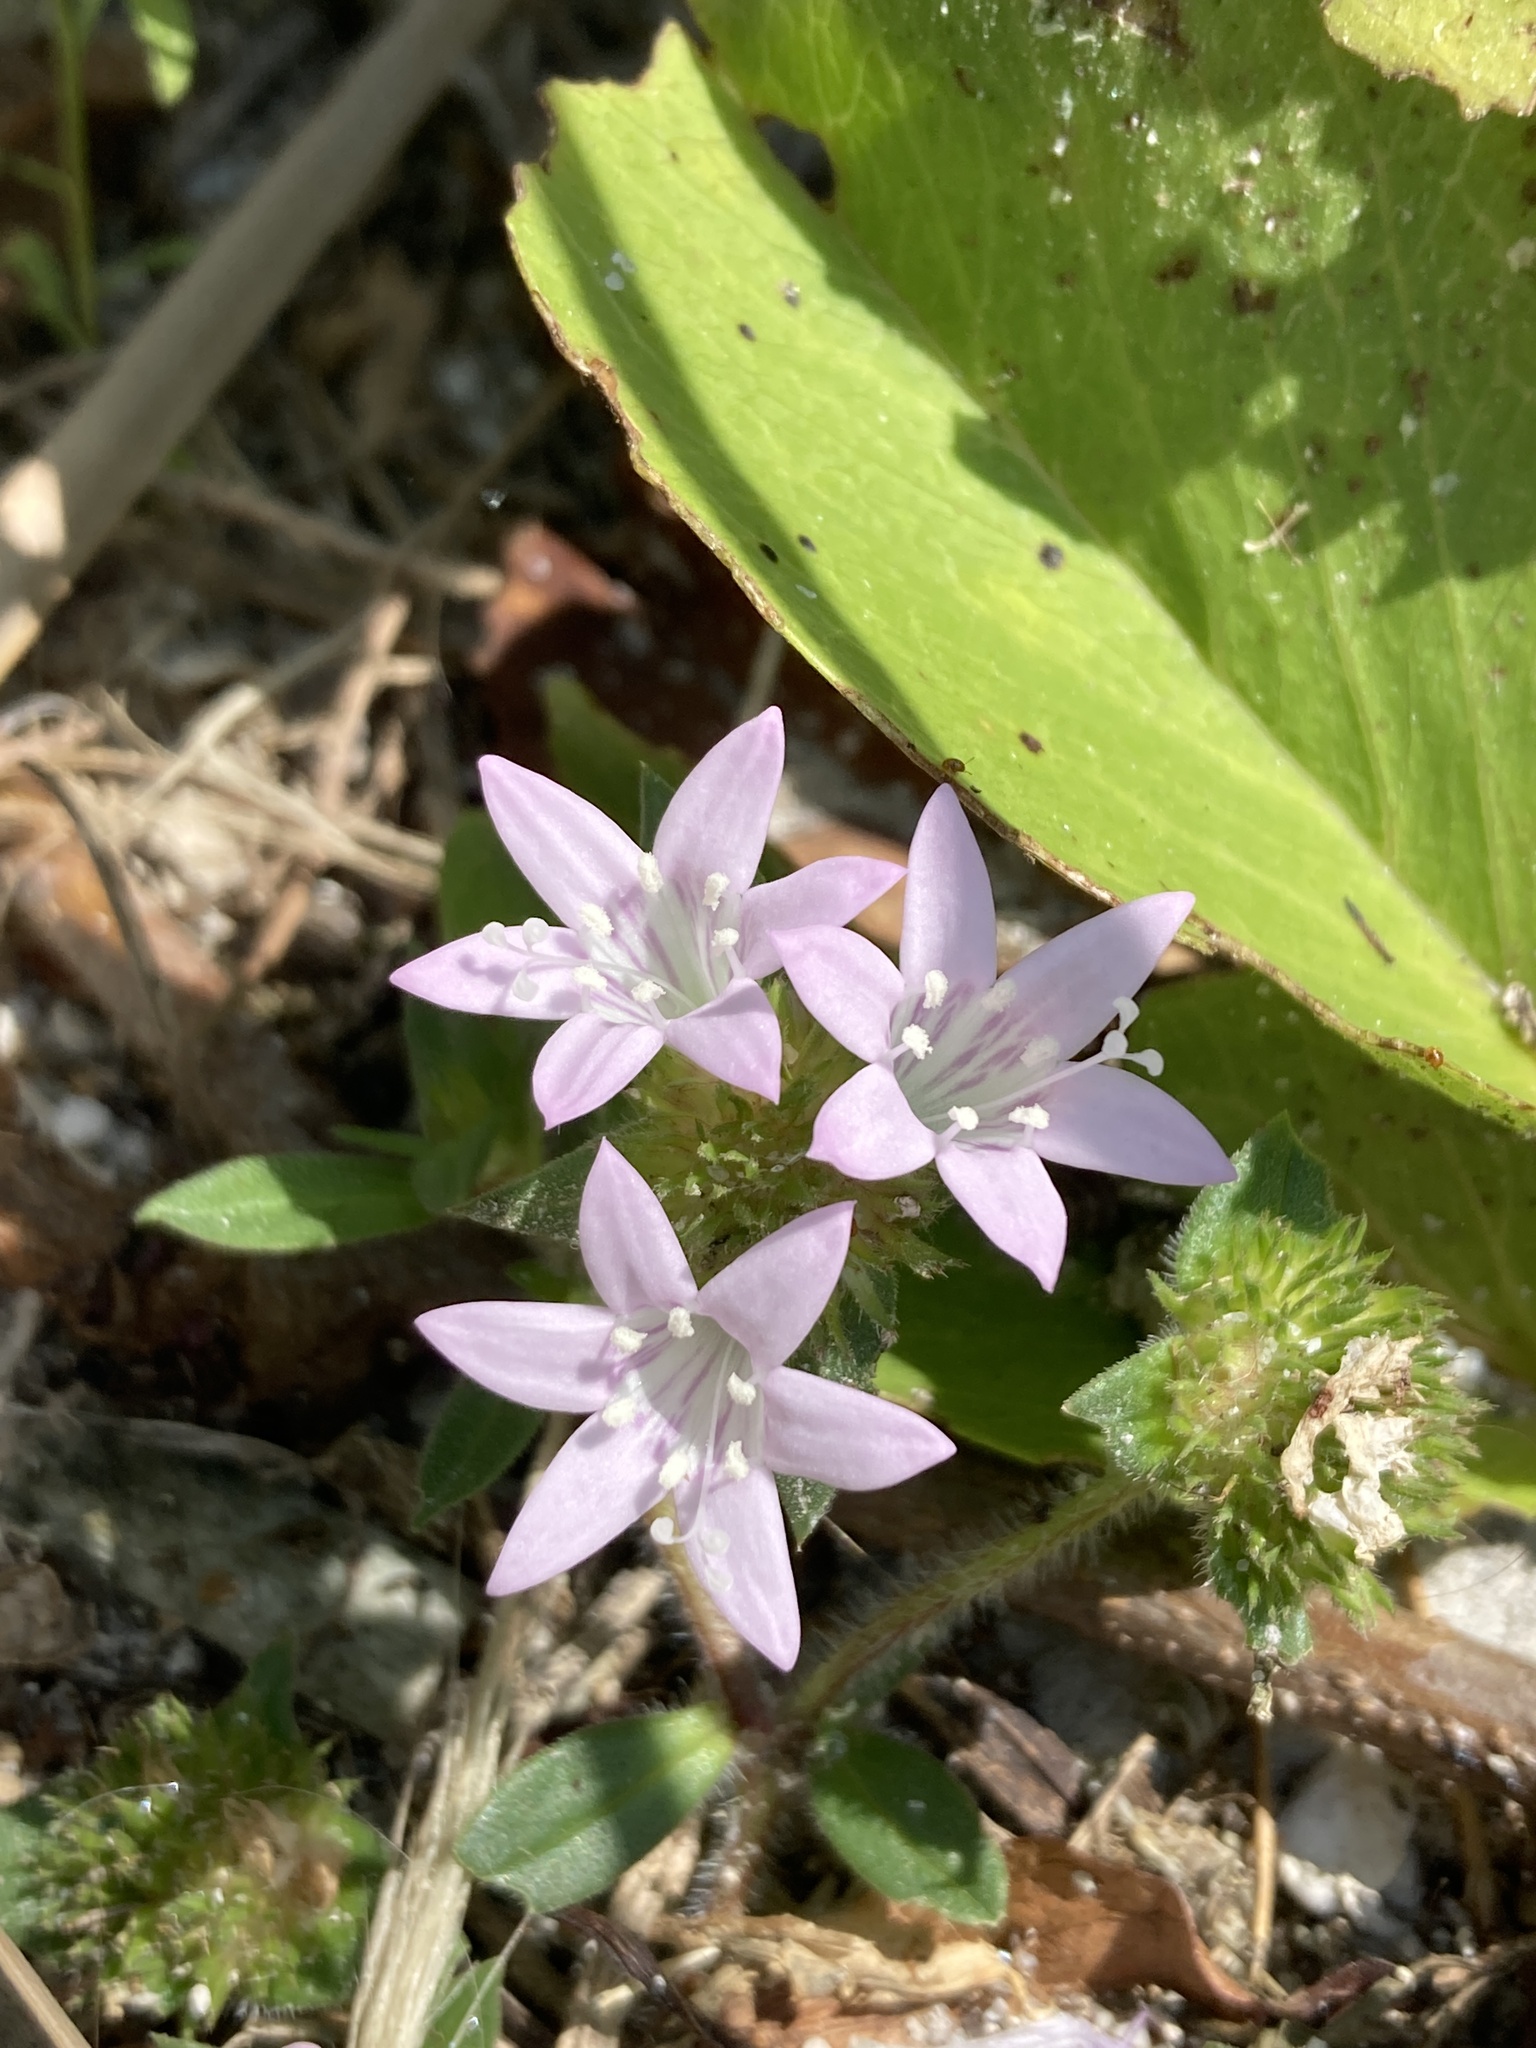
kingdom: Plantae
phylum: Tracheophyta
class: Magnoliopsida
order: Gentianales
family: Rubiaceae
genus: Richardia
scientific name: Richardia grandiflora
